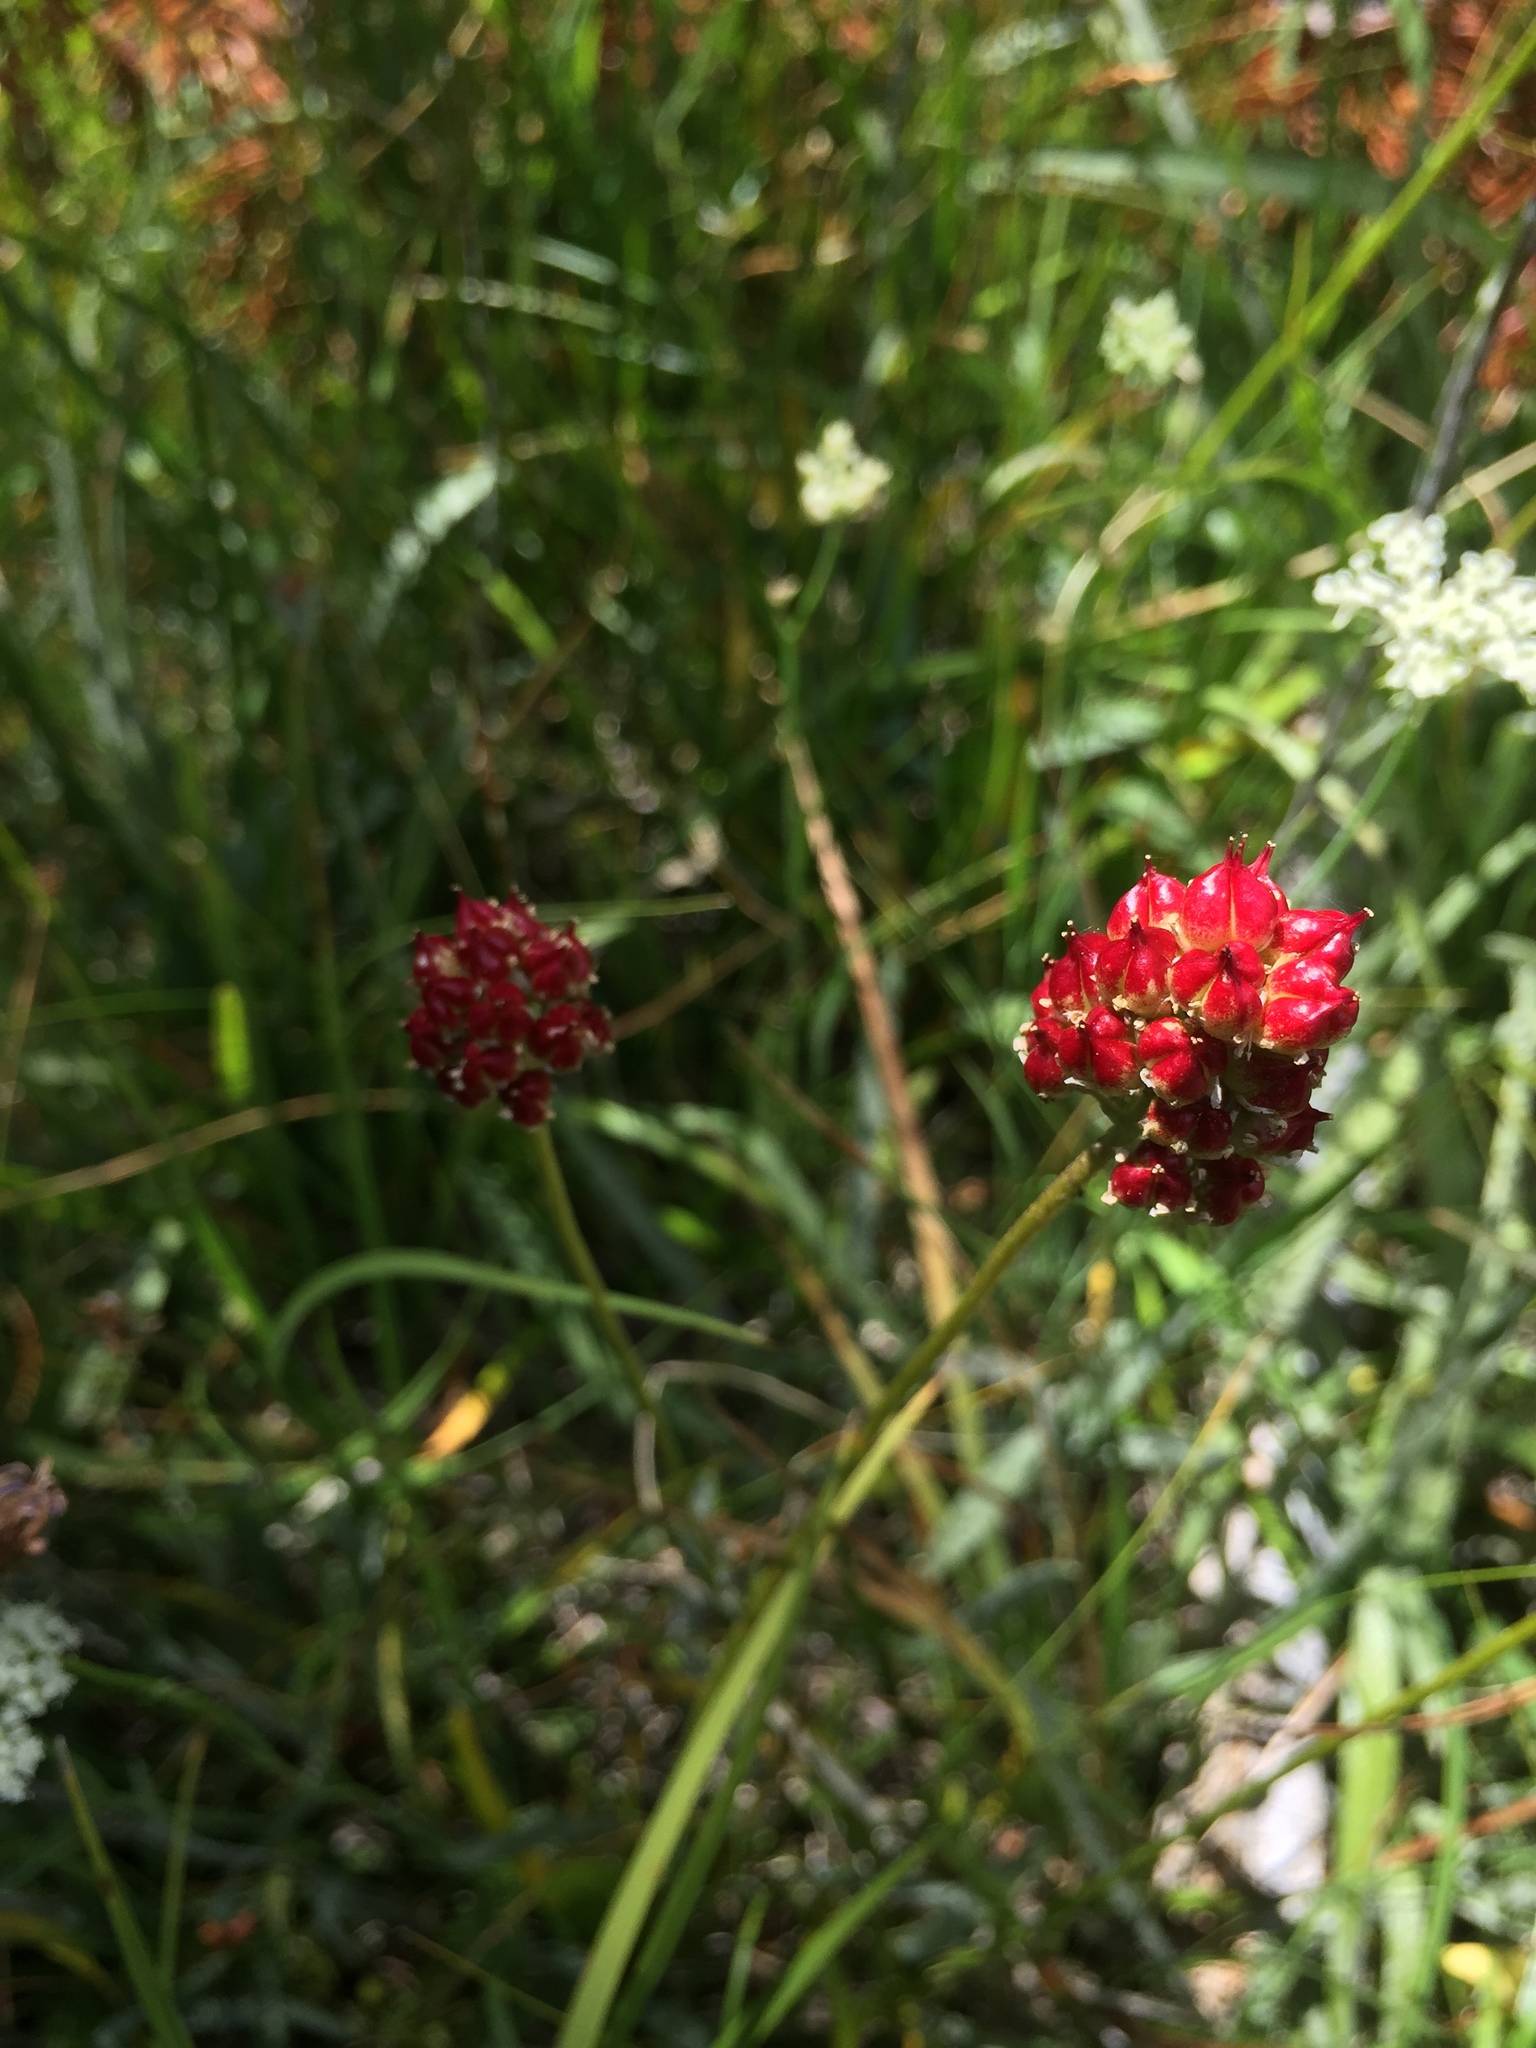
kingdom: Plantae
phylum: Tracheophyta
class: Liliopsida
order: Alismatales
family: Tofieldiaceae
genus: Triantha
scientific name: Triantha occidentalis
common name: Western false asphodel
